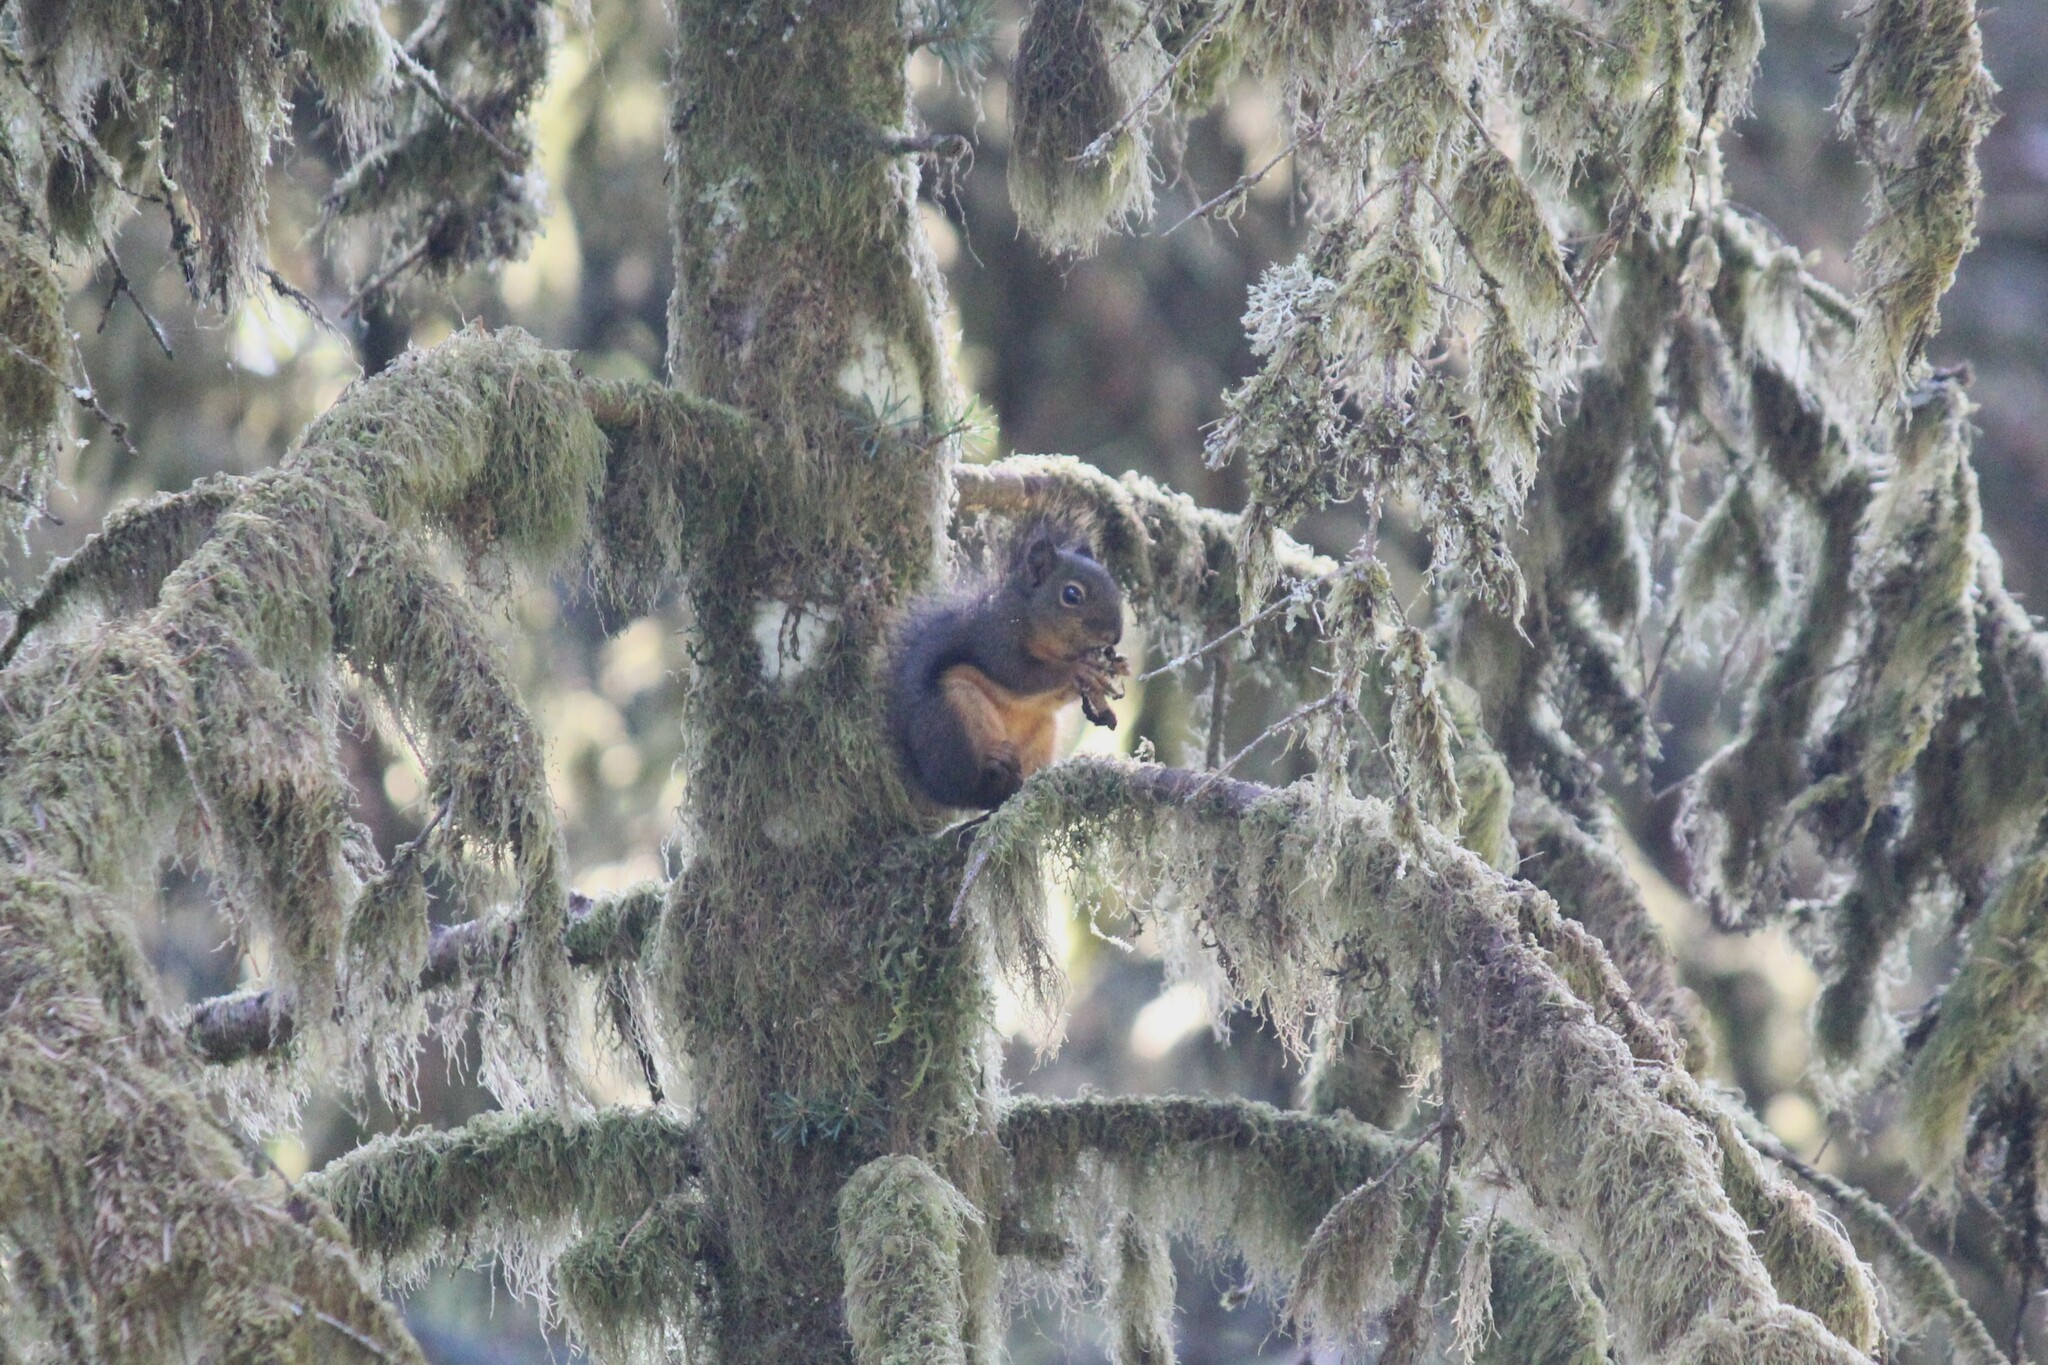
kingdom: Animalia
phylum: Chordata
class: Mammalia
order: Rodentia
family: Sciuridae
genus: Tamiasciurus
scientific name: Tamiasciurus douglasii
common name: Douglas's squirrel
